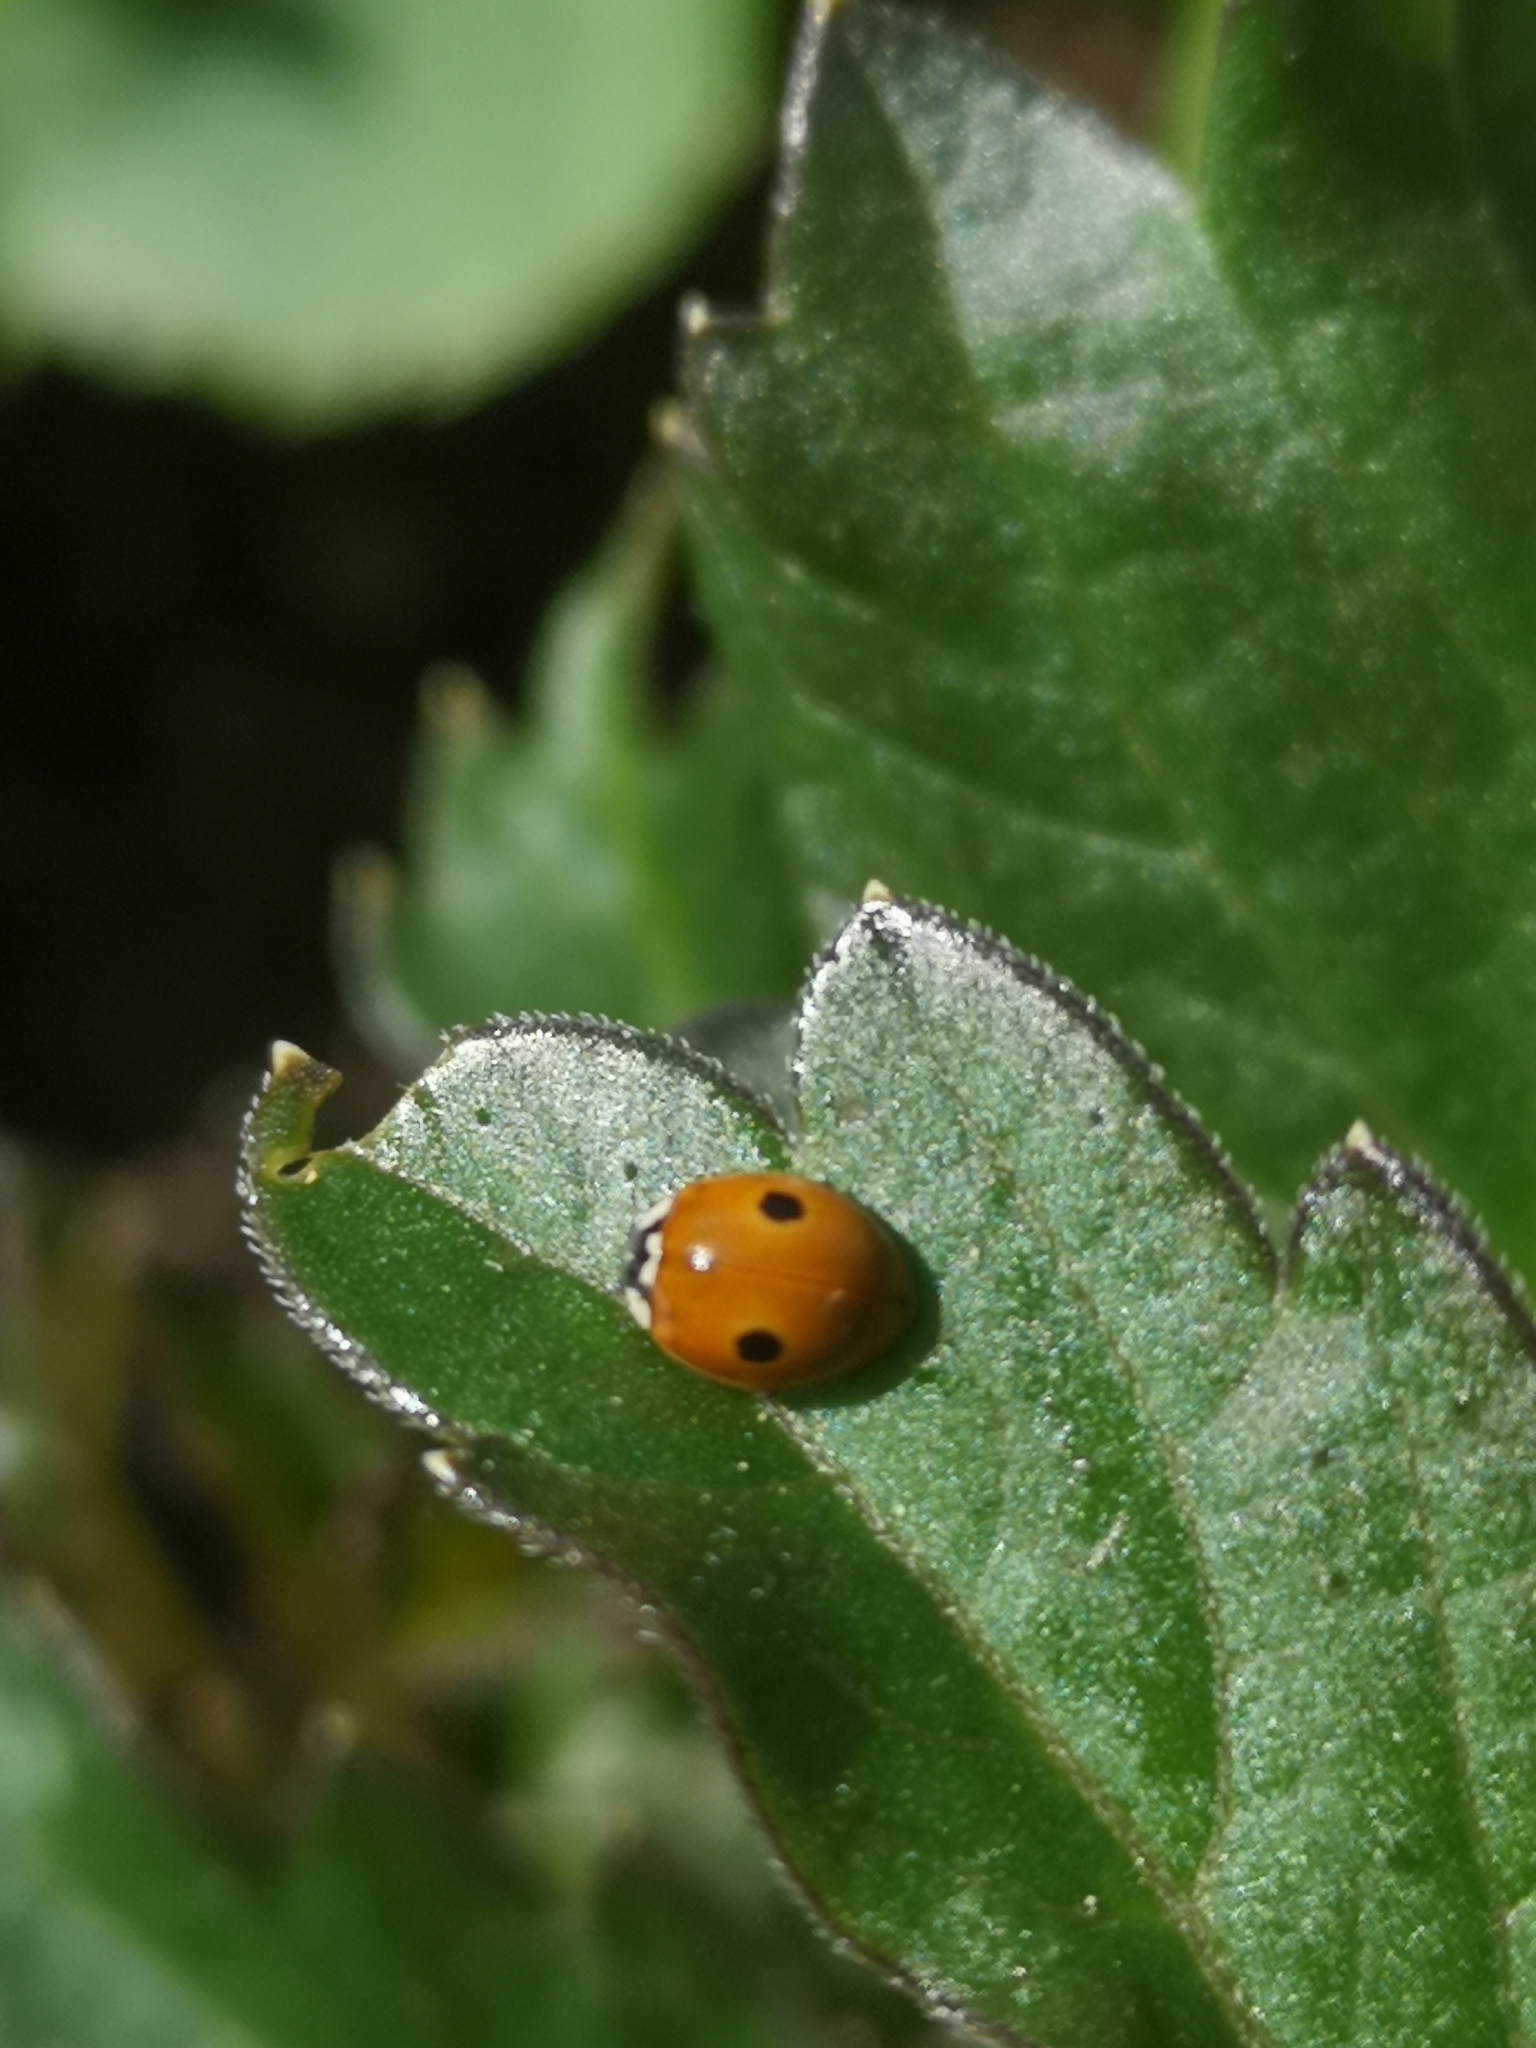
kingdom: Animalia
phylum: Arthropoda
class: Insecta
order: Coleoptera
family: Coccinellidae
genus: Adalia
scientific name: Adalia bipunctata
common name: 2-spot ladybird
